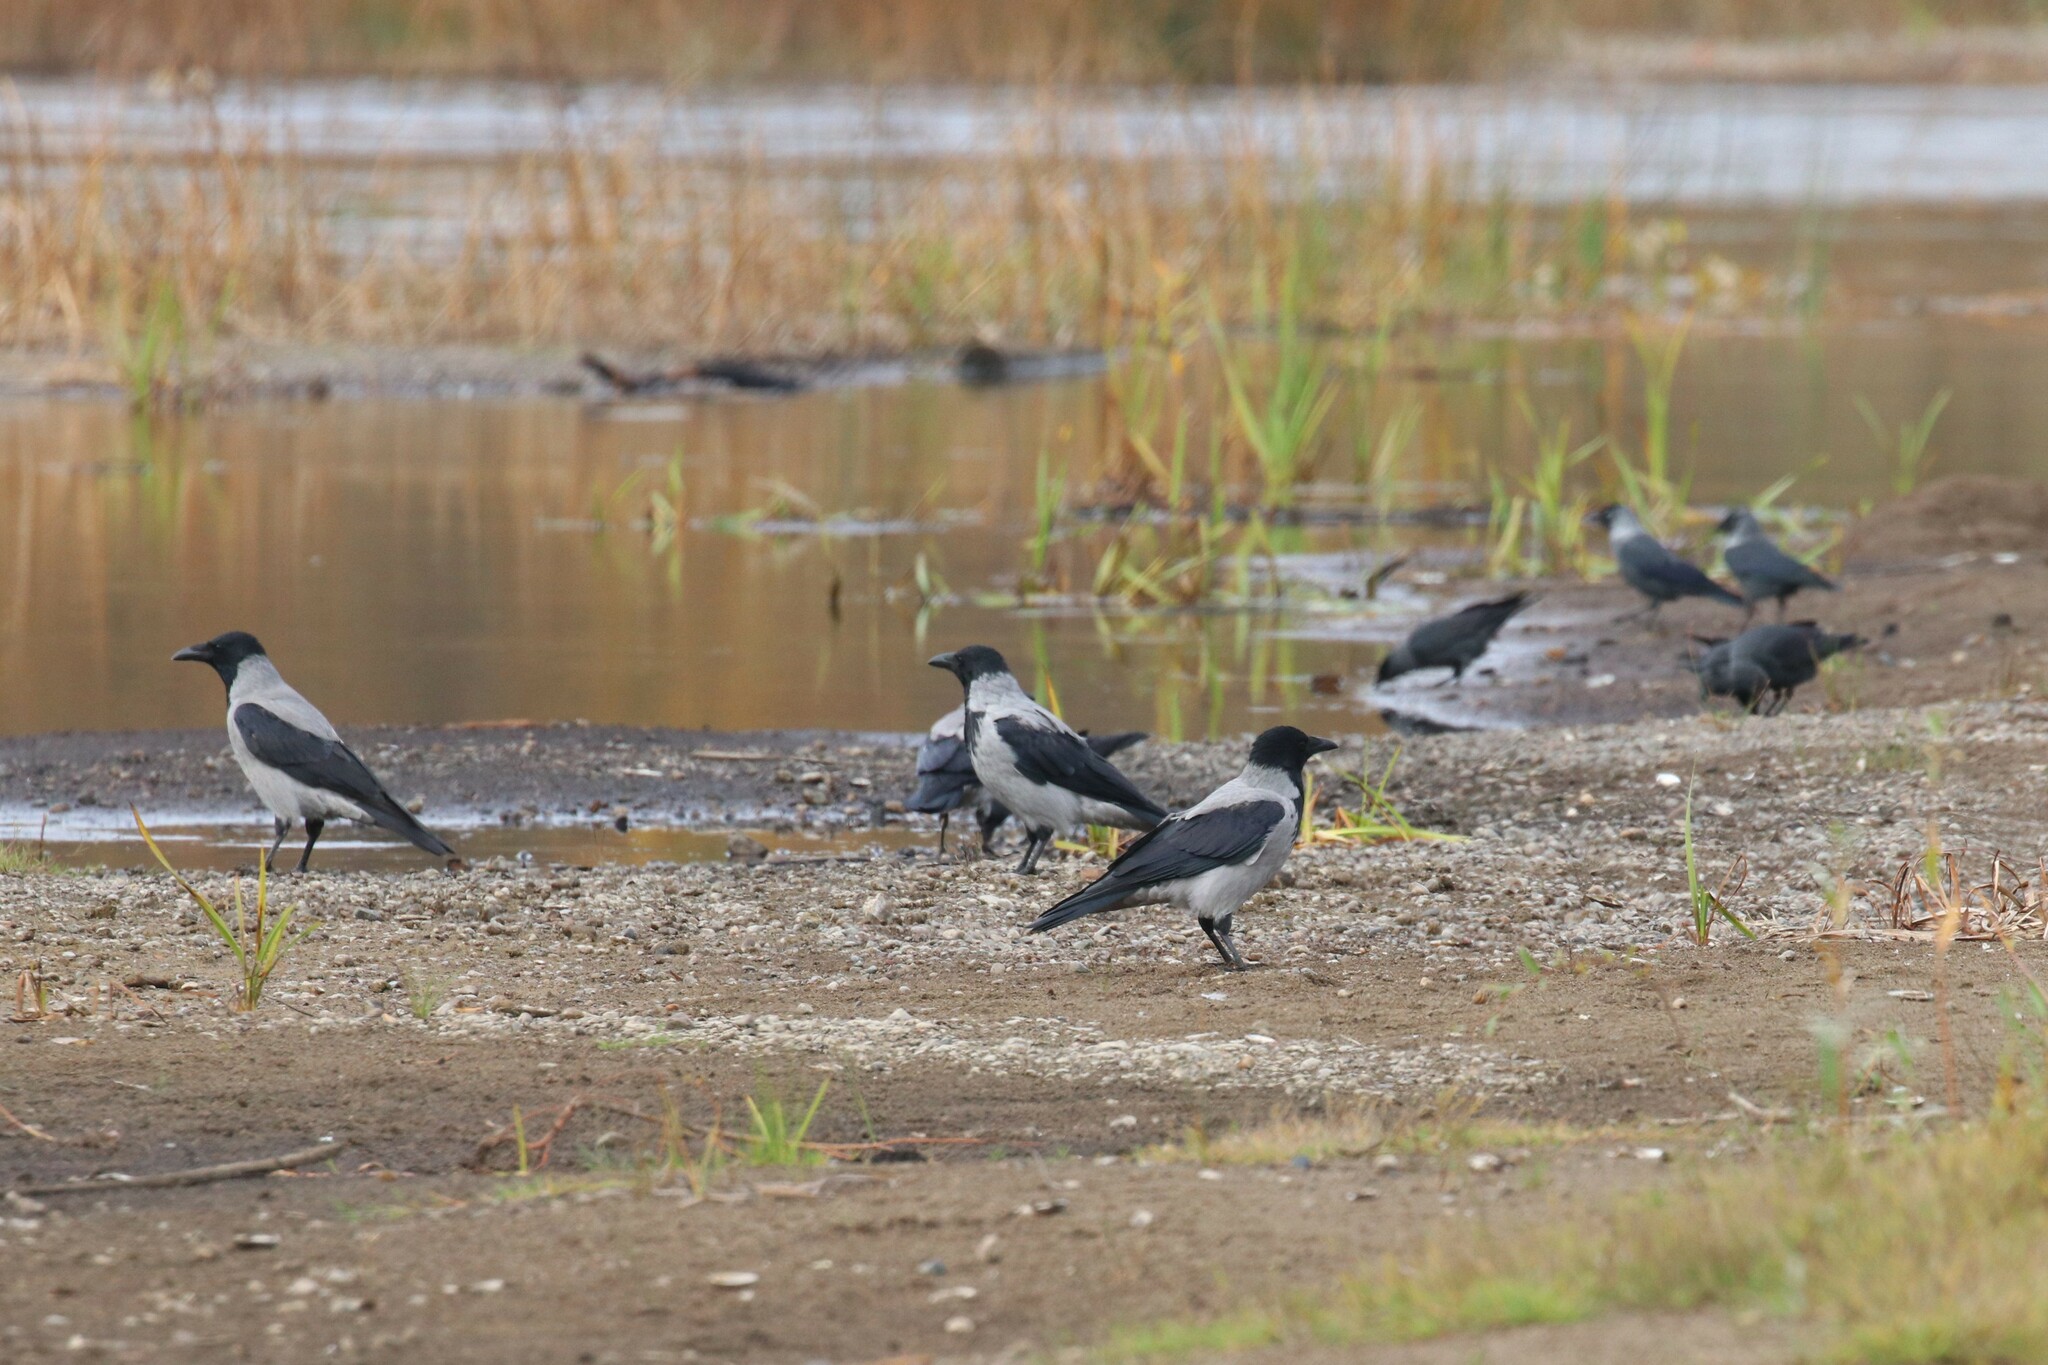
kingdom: Animalia
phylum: Chordata
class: Aves
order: Passeriformes
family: Corvidae
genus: Corvus
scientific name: Corvus cornix
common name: Hooded crow
